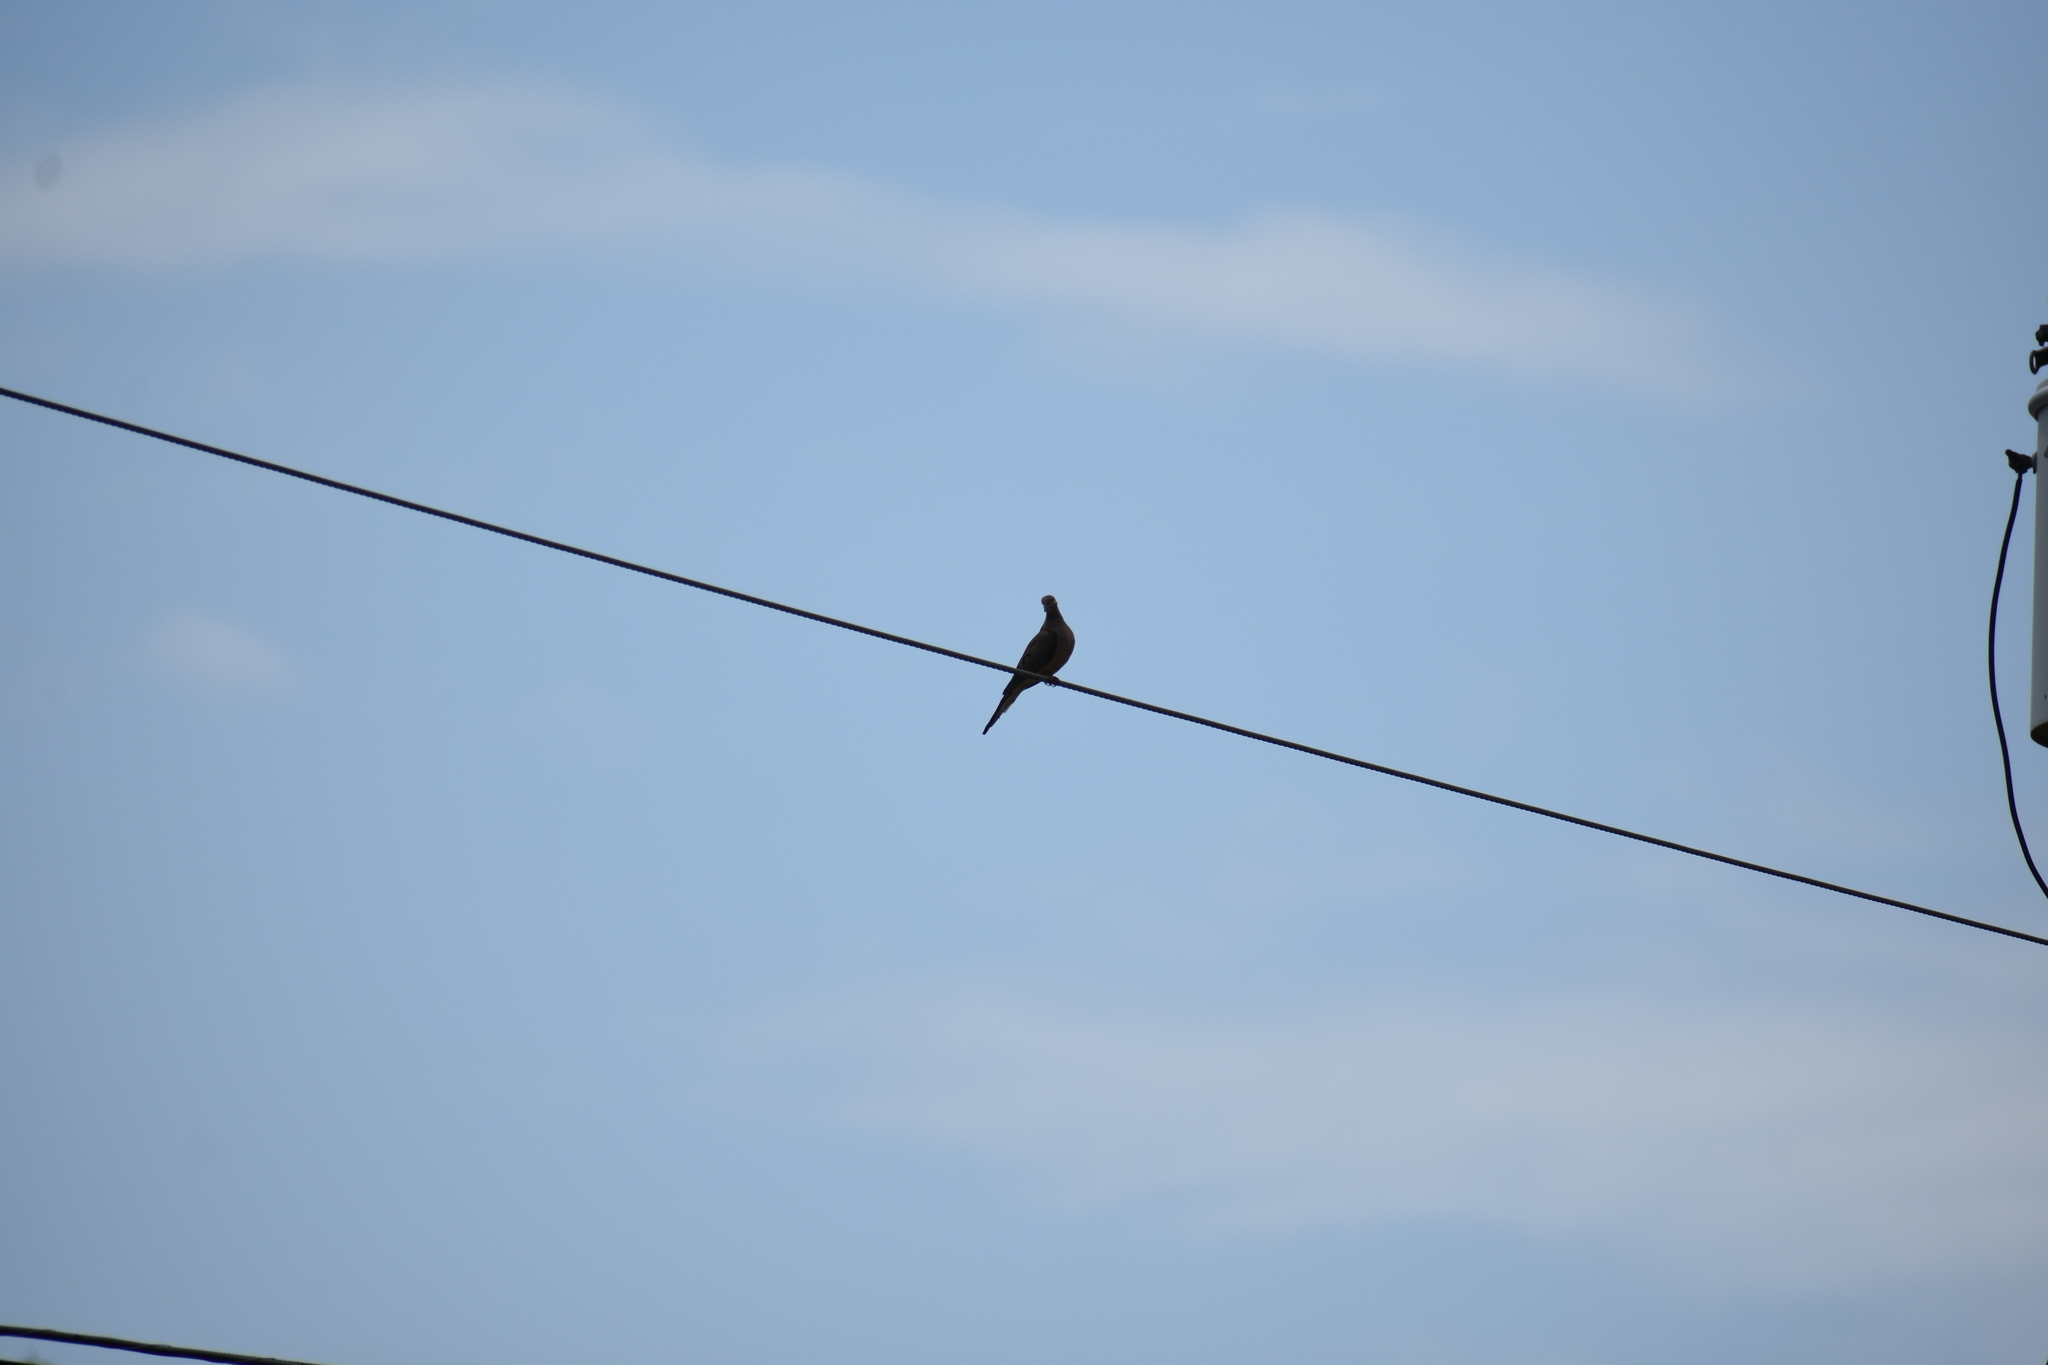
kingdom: Animalia
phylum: Chordata
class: Aves
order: Columbiformes
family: Columbidae
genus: Zenaida
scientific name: Zenaida macroura
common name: Mourning dove
